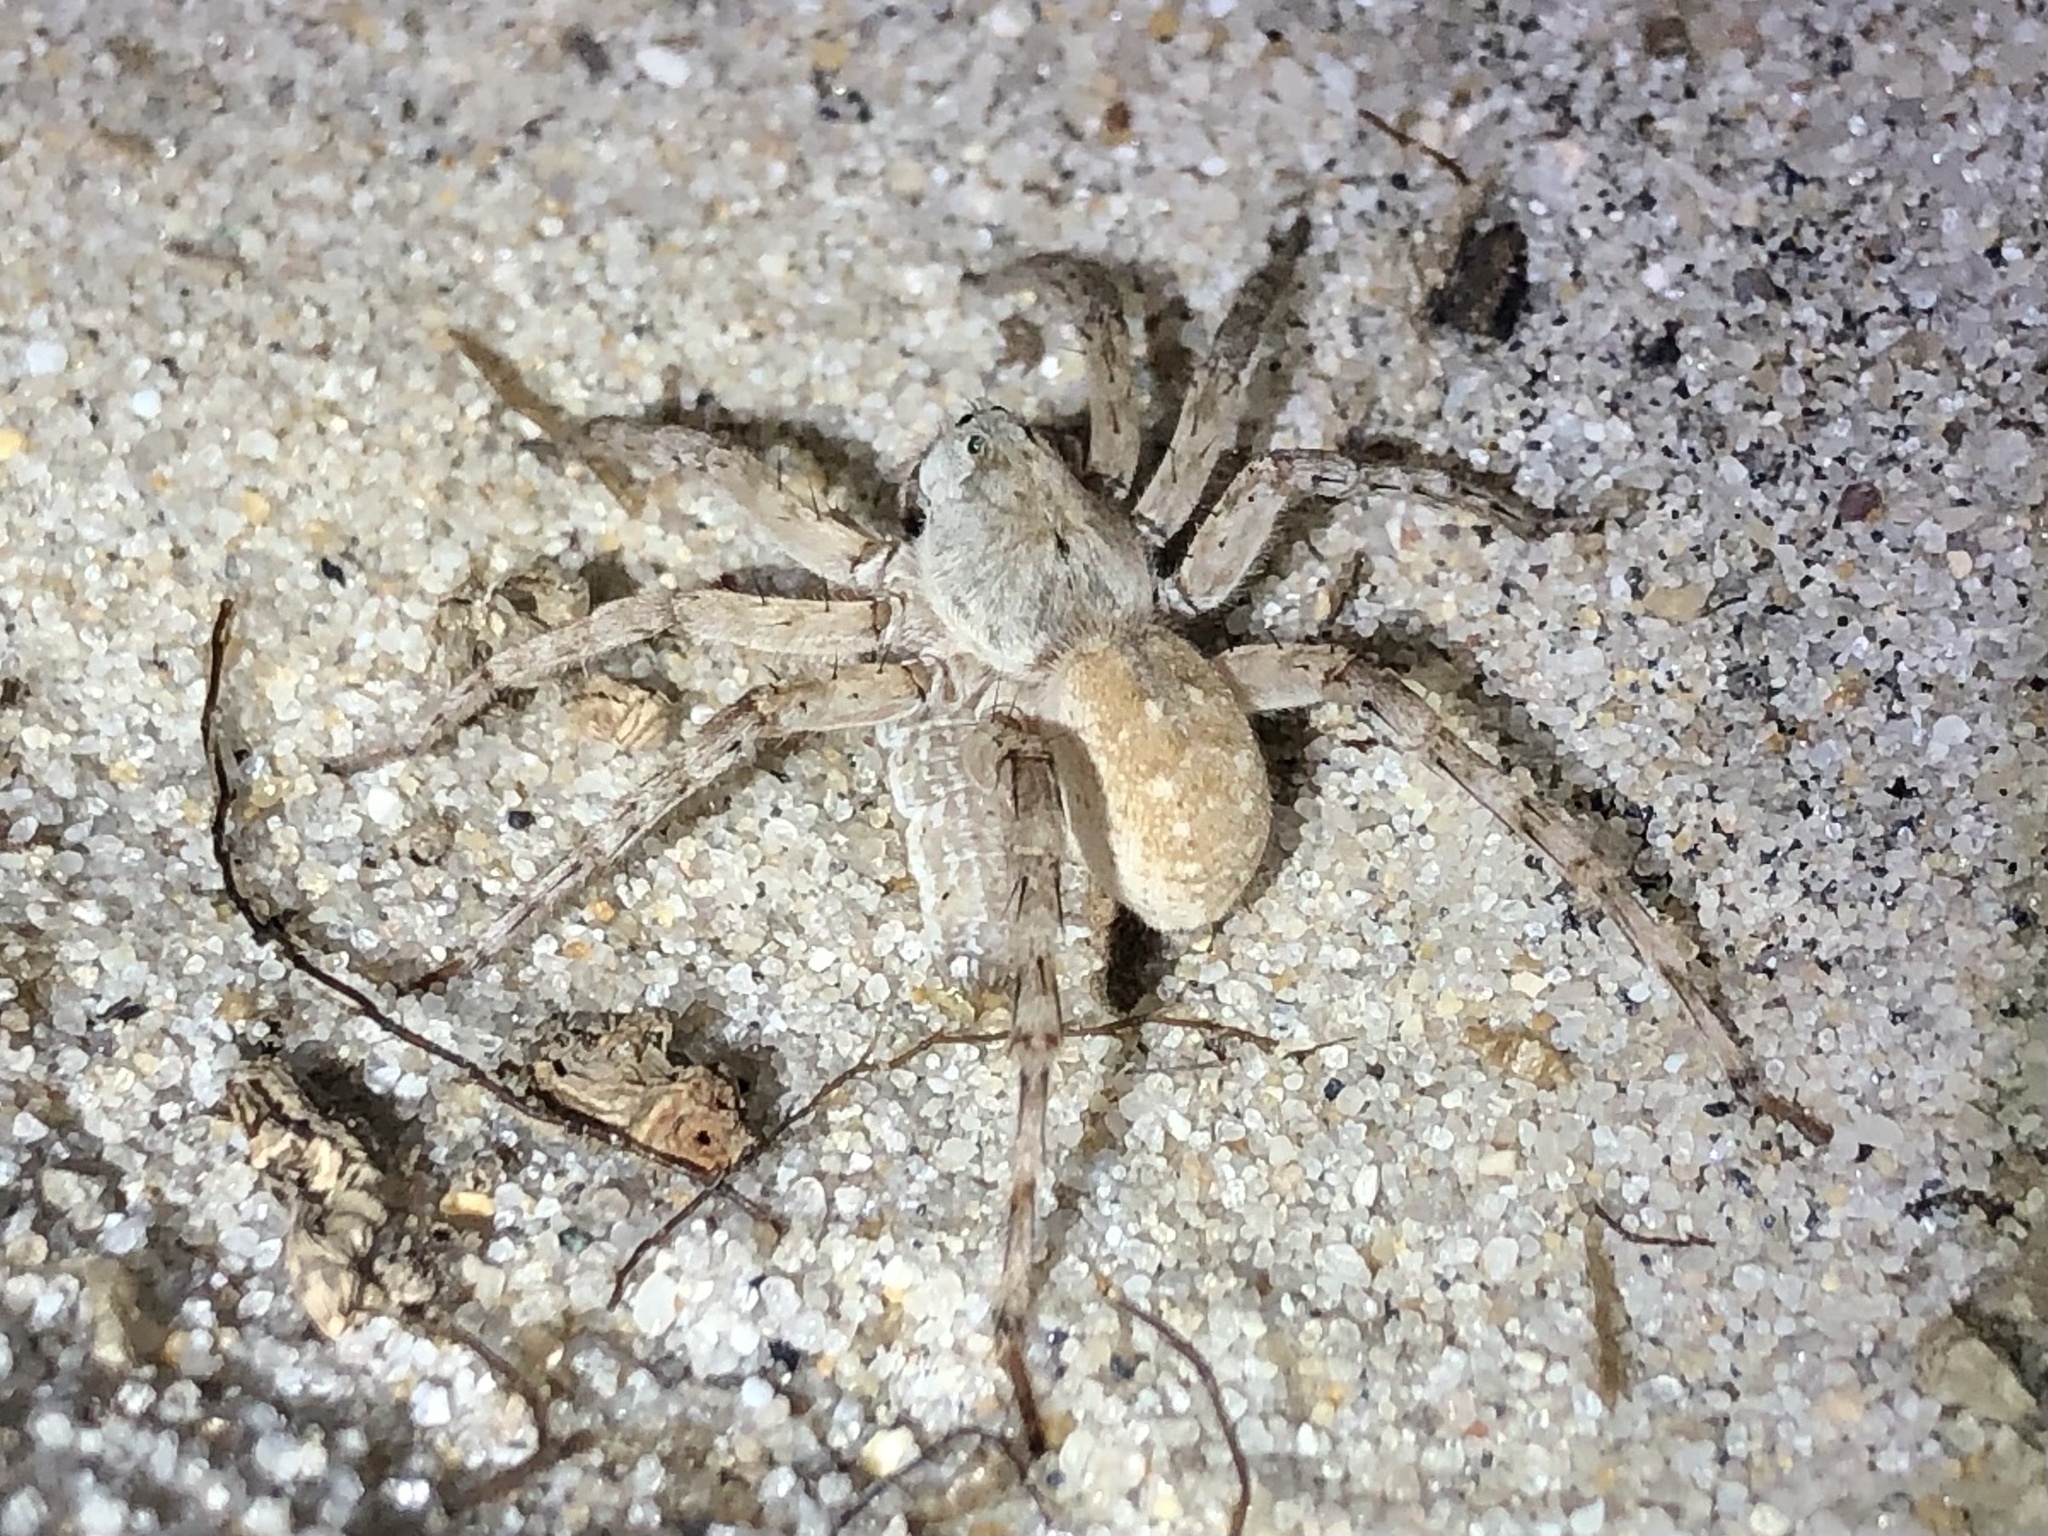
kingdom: Animalia
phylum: Arthropoda
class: Arachnida
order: Araneae
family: Lycosidae
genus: Arctosa
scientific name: Arctosa littoralis
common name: Wolf spiders
